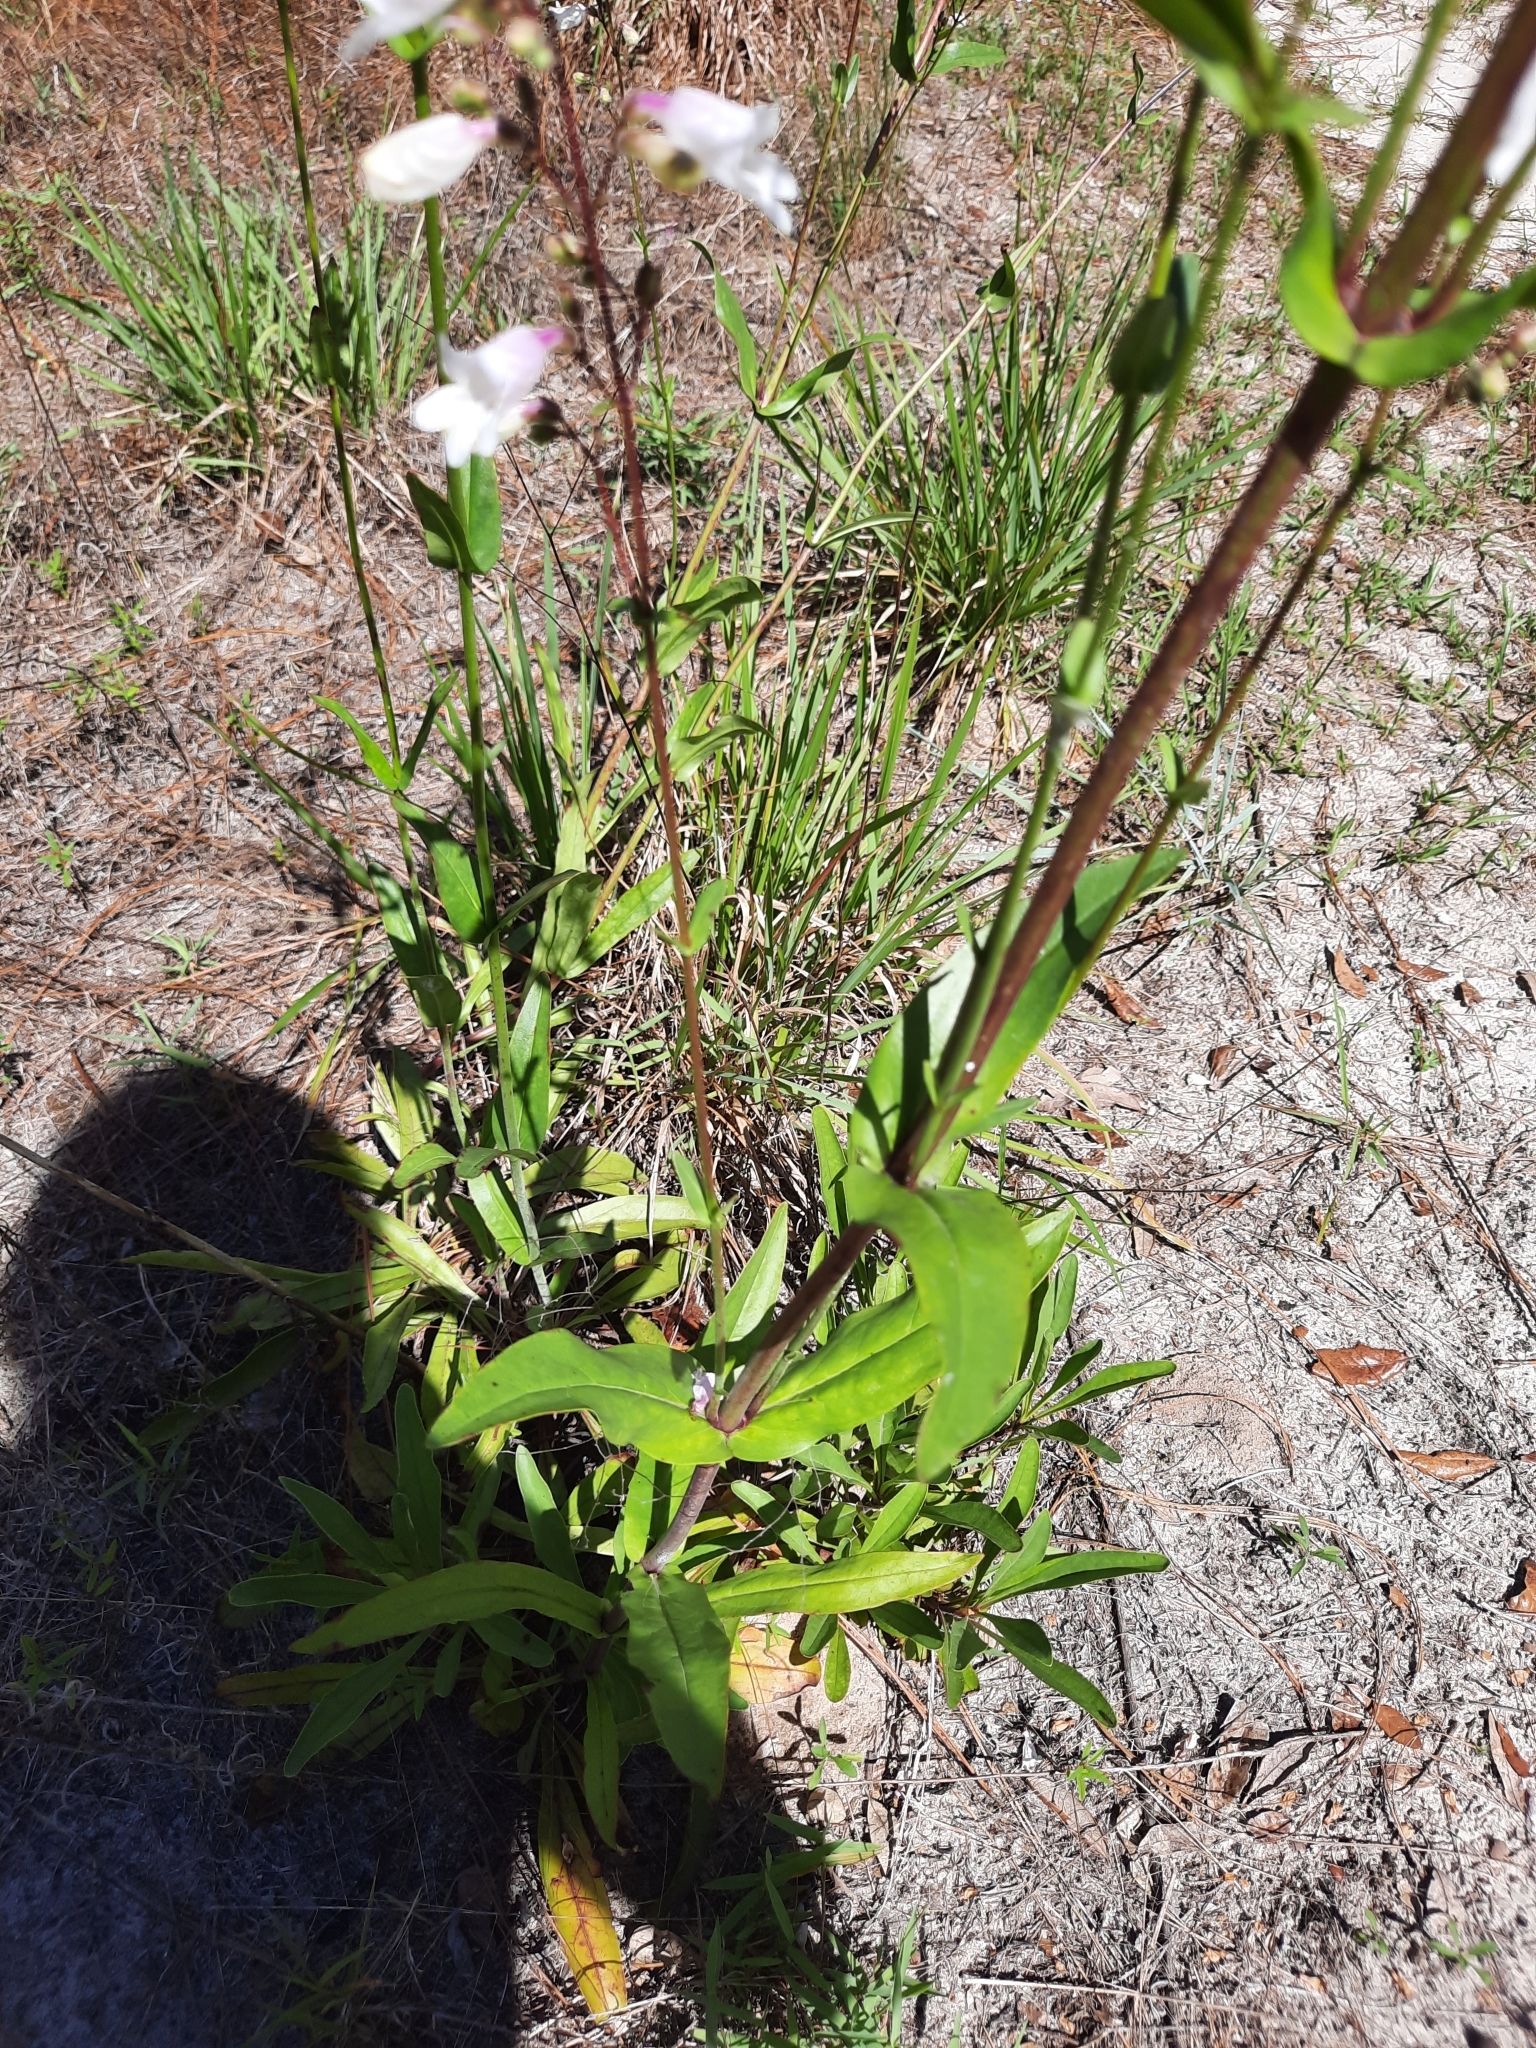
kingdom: Plantae
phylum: Tracheophyta
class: Magnoliopsida
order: Lamiales
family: Plantaginaceae
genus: Penstemon
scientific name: Penstemon multiflorus
